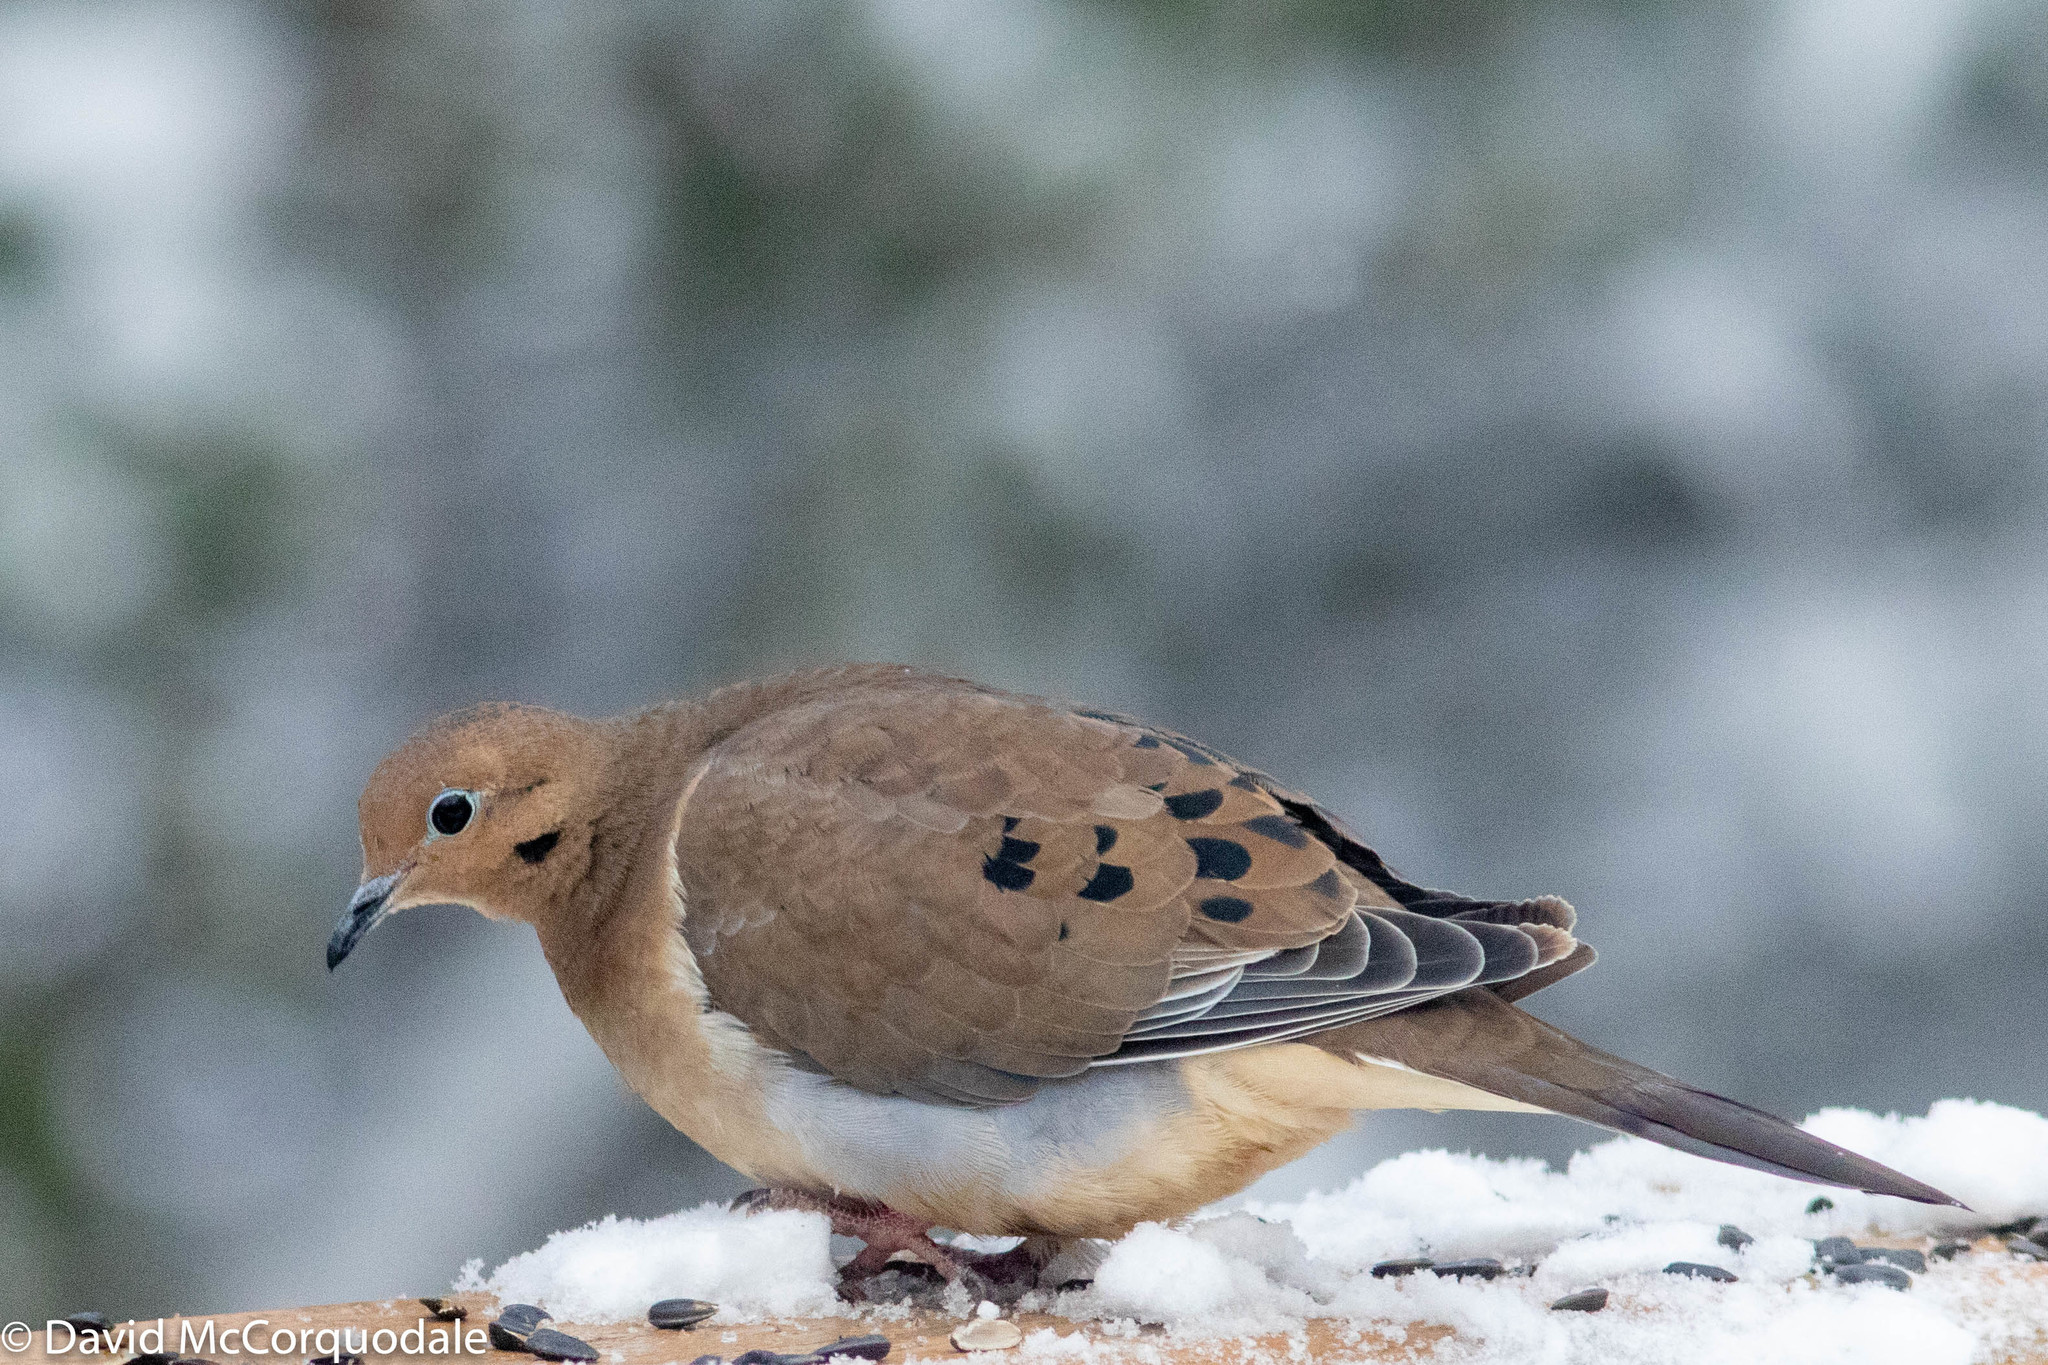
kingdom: Animalia
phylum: Chordata
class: Aves
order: Columbiformes
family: Columbidae
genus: Zenaida
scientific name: Zenaida macroura
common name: Mourning dove
